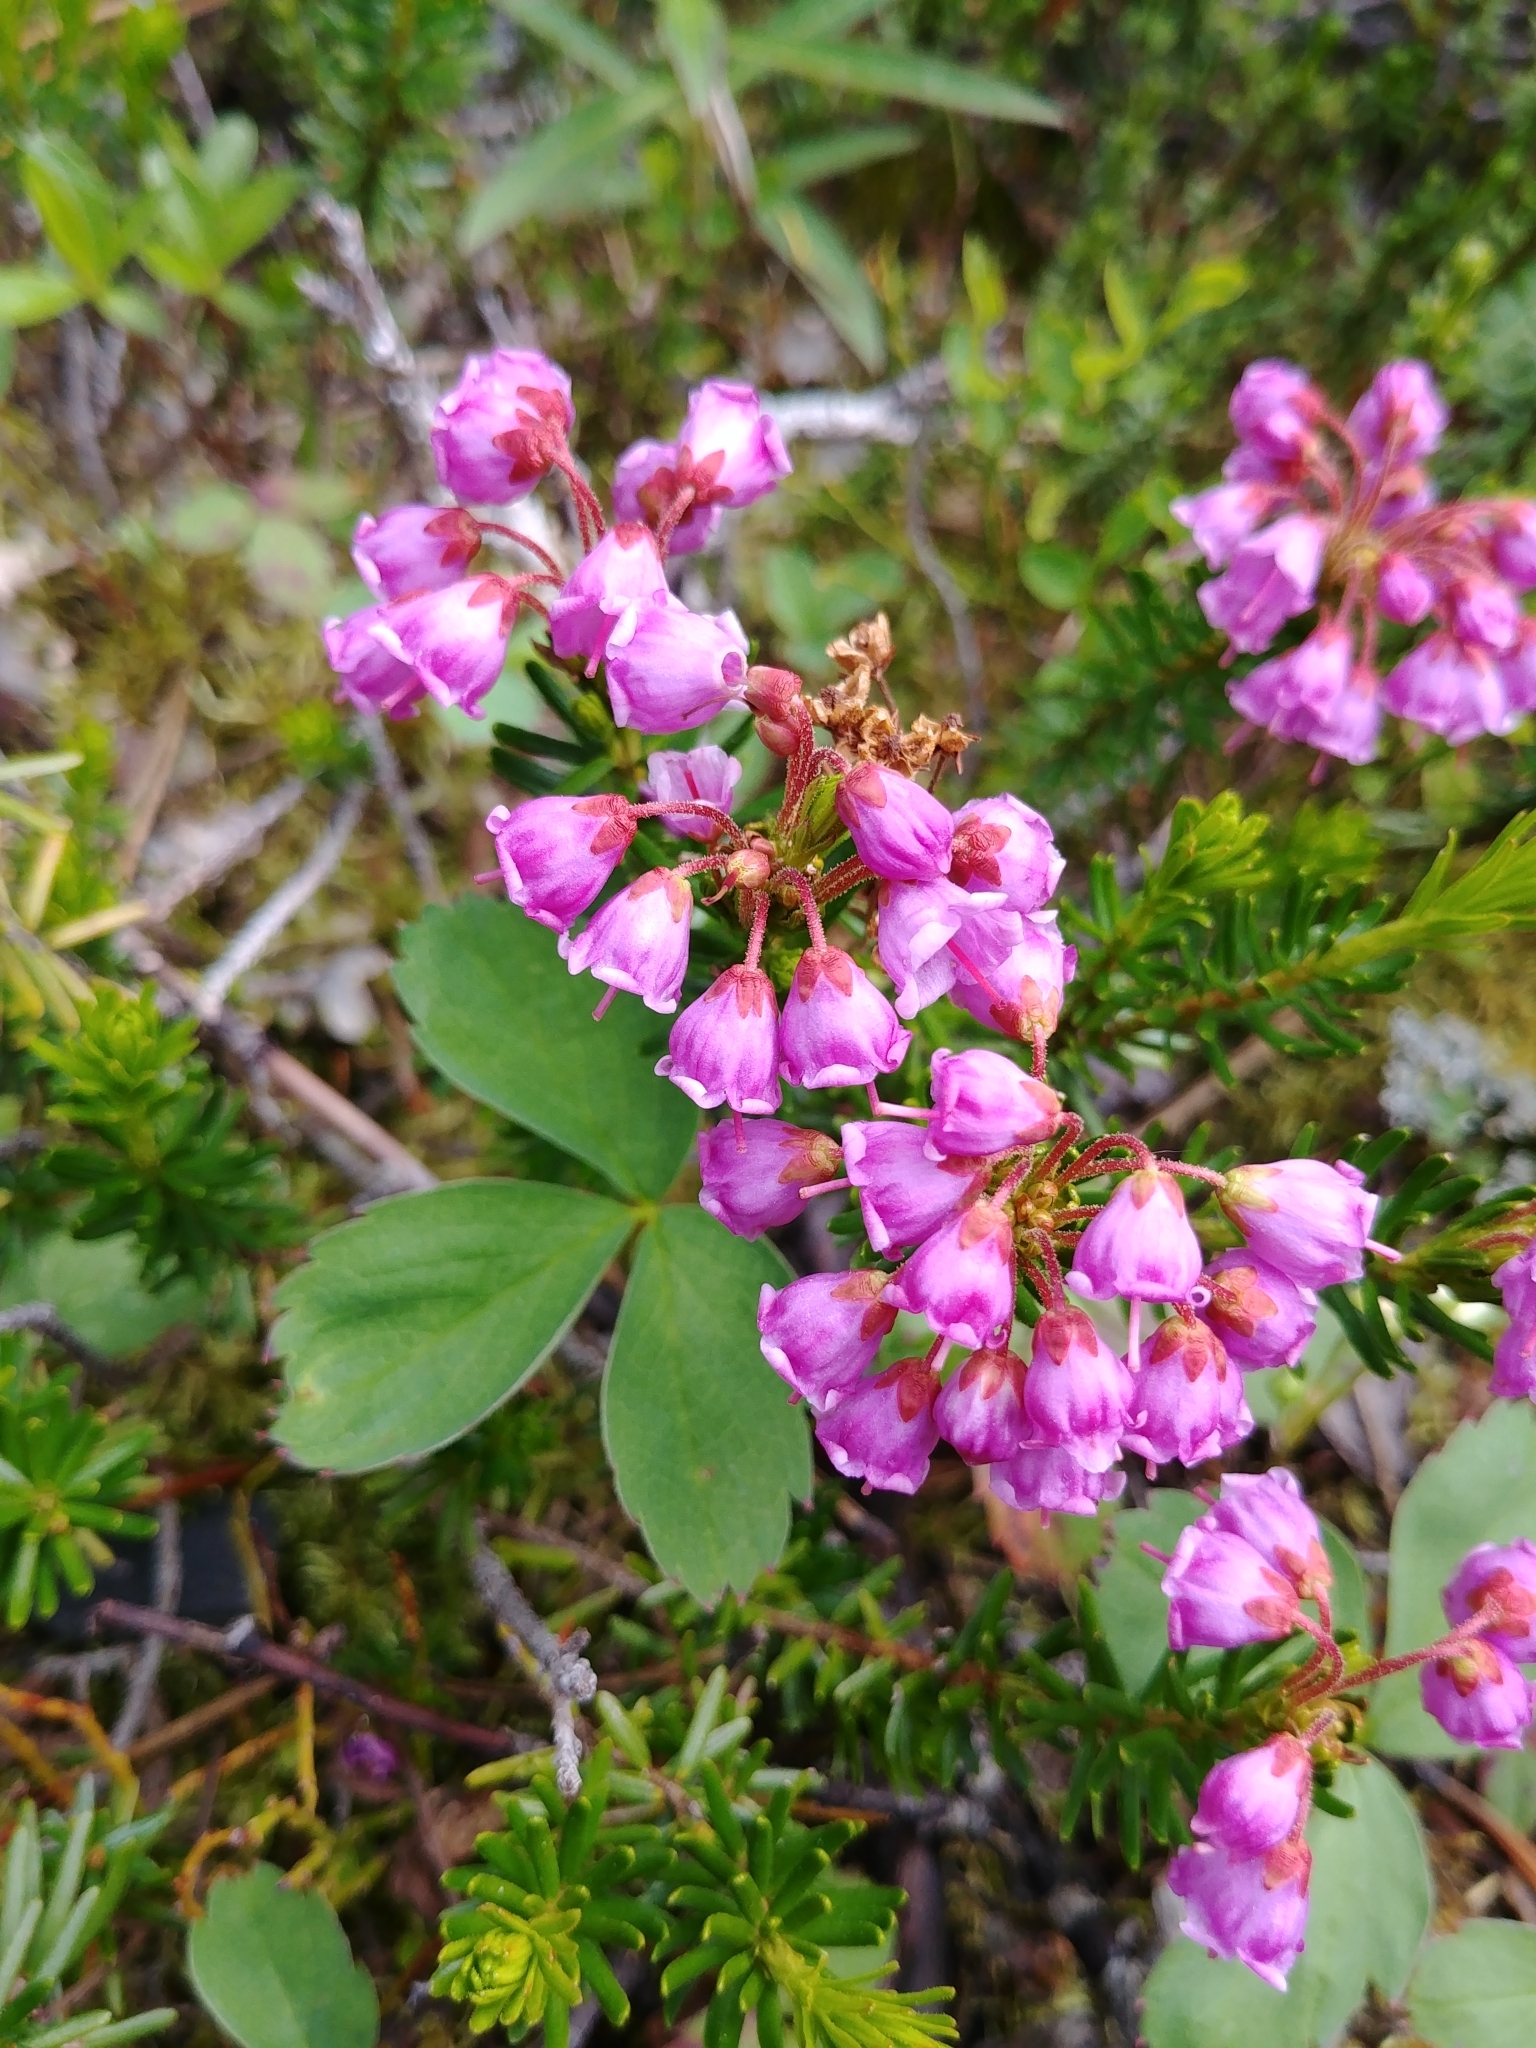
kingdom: Plantae
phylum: Tracheophyta
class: Magnoliopsida
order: Ericales
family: Ericaceae
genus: Phyllodoce
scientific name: Phyllodoce empetriformis
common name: Pink mountain heather
